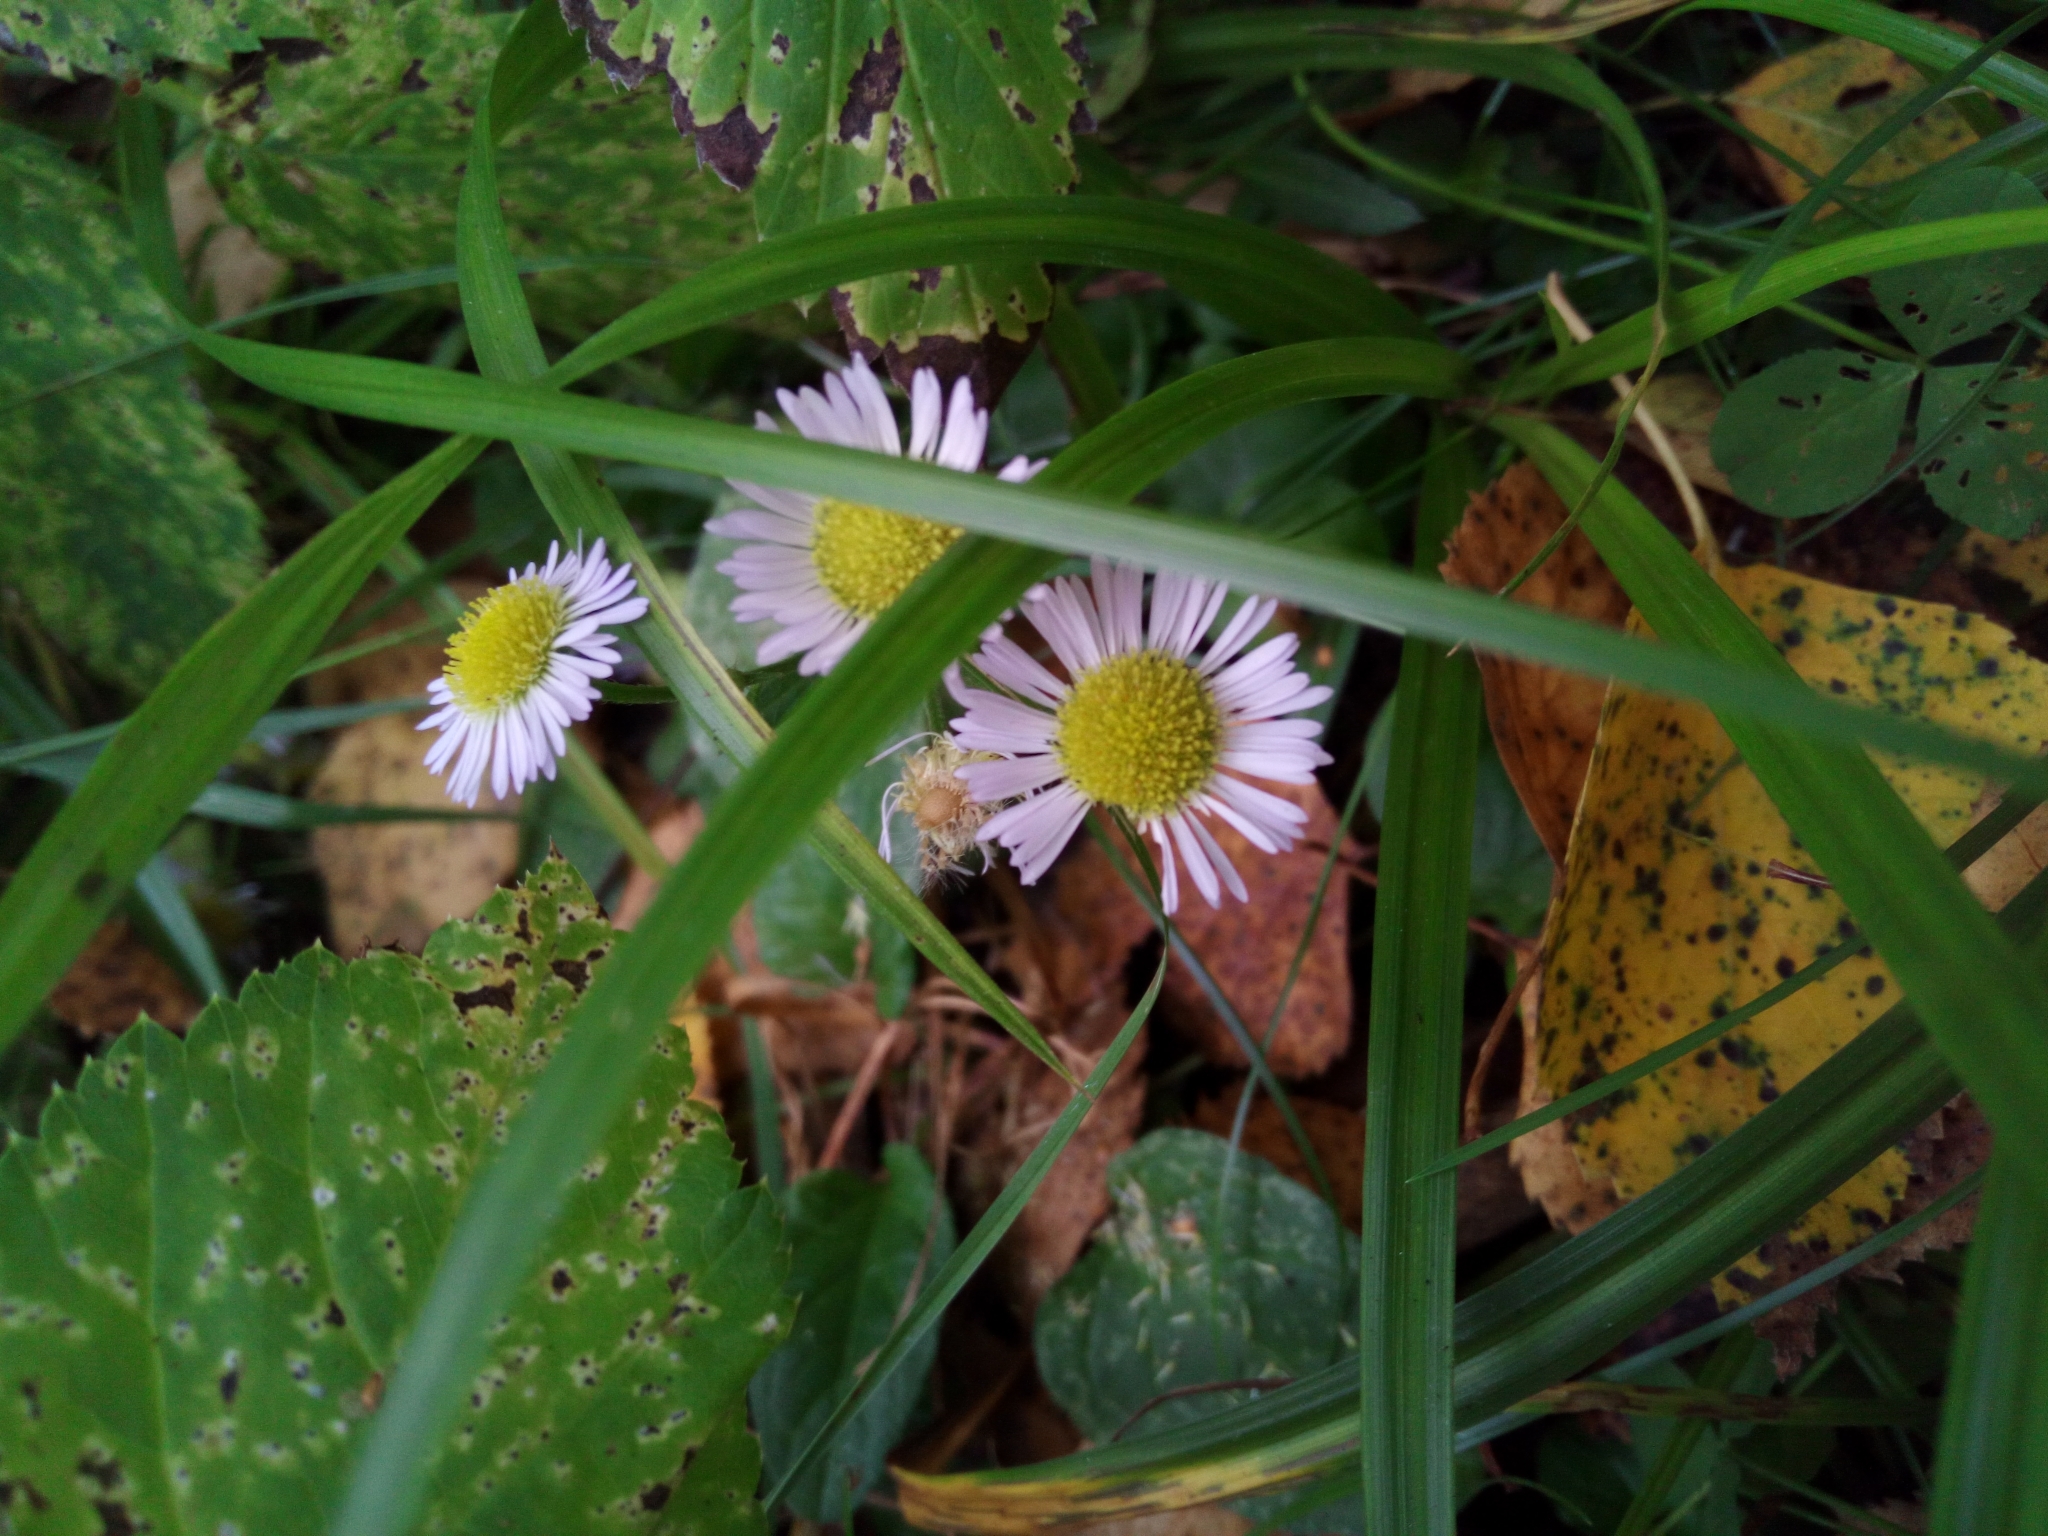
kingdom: Plantae
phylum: Tracheophyta
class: Magnoliopsida
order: Asterales
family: Asteraceae
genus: Erigeron
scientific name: Erigeron annuus
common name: Tall fleabane
